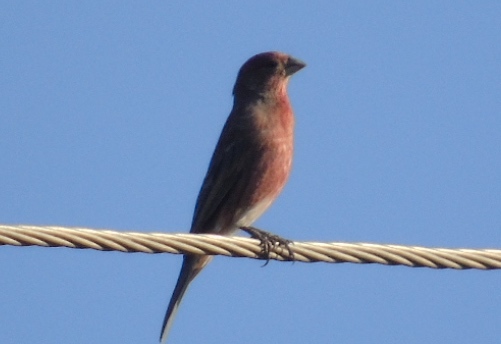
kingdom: Animalia
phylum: Chordata
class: Aves
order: Passeriformes
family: Fringillidae
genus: Haemorhous
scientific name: Haemorhous mexicanus
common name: House finch
